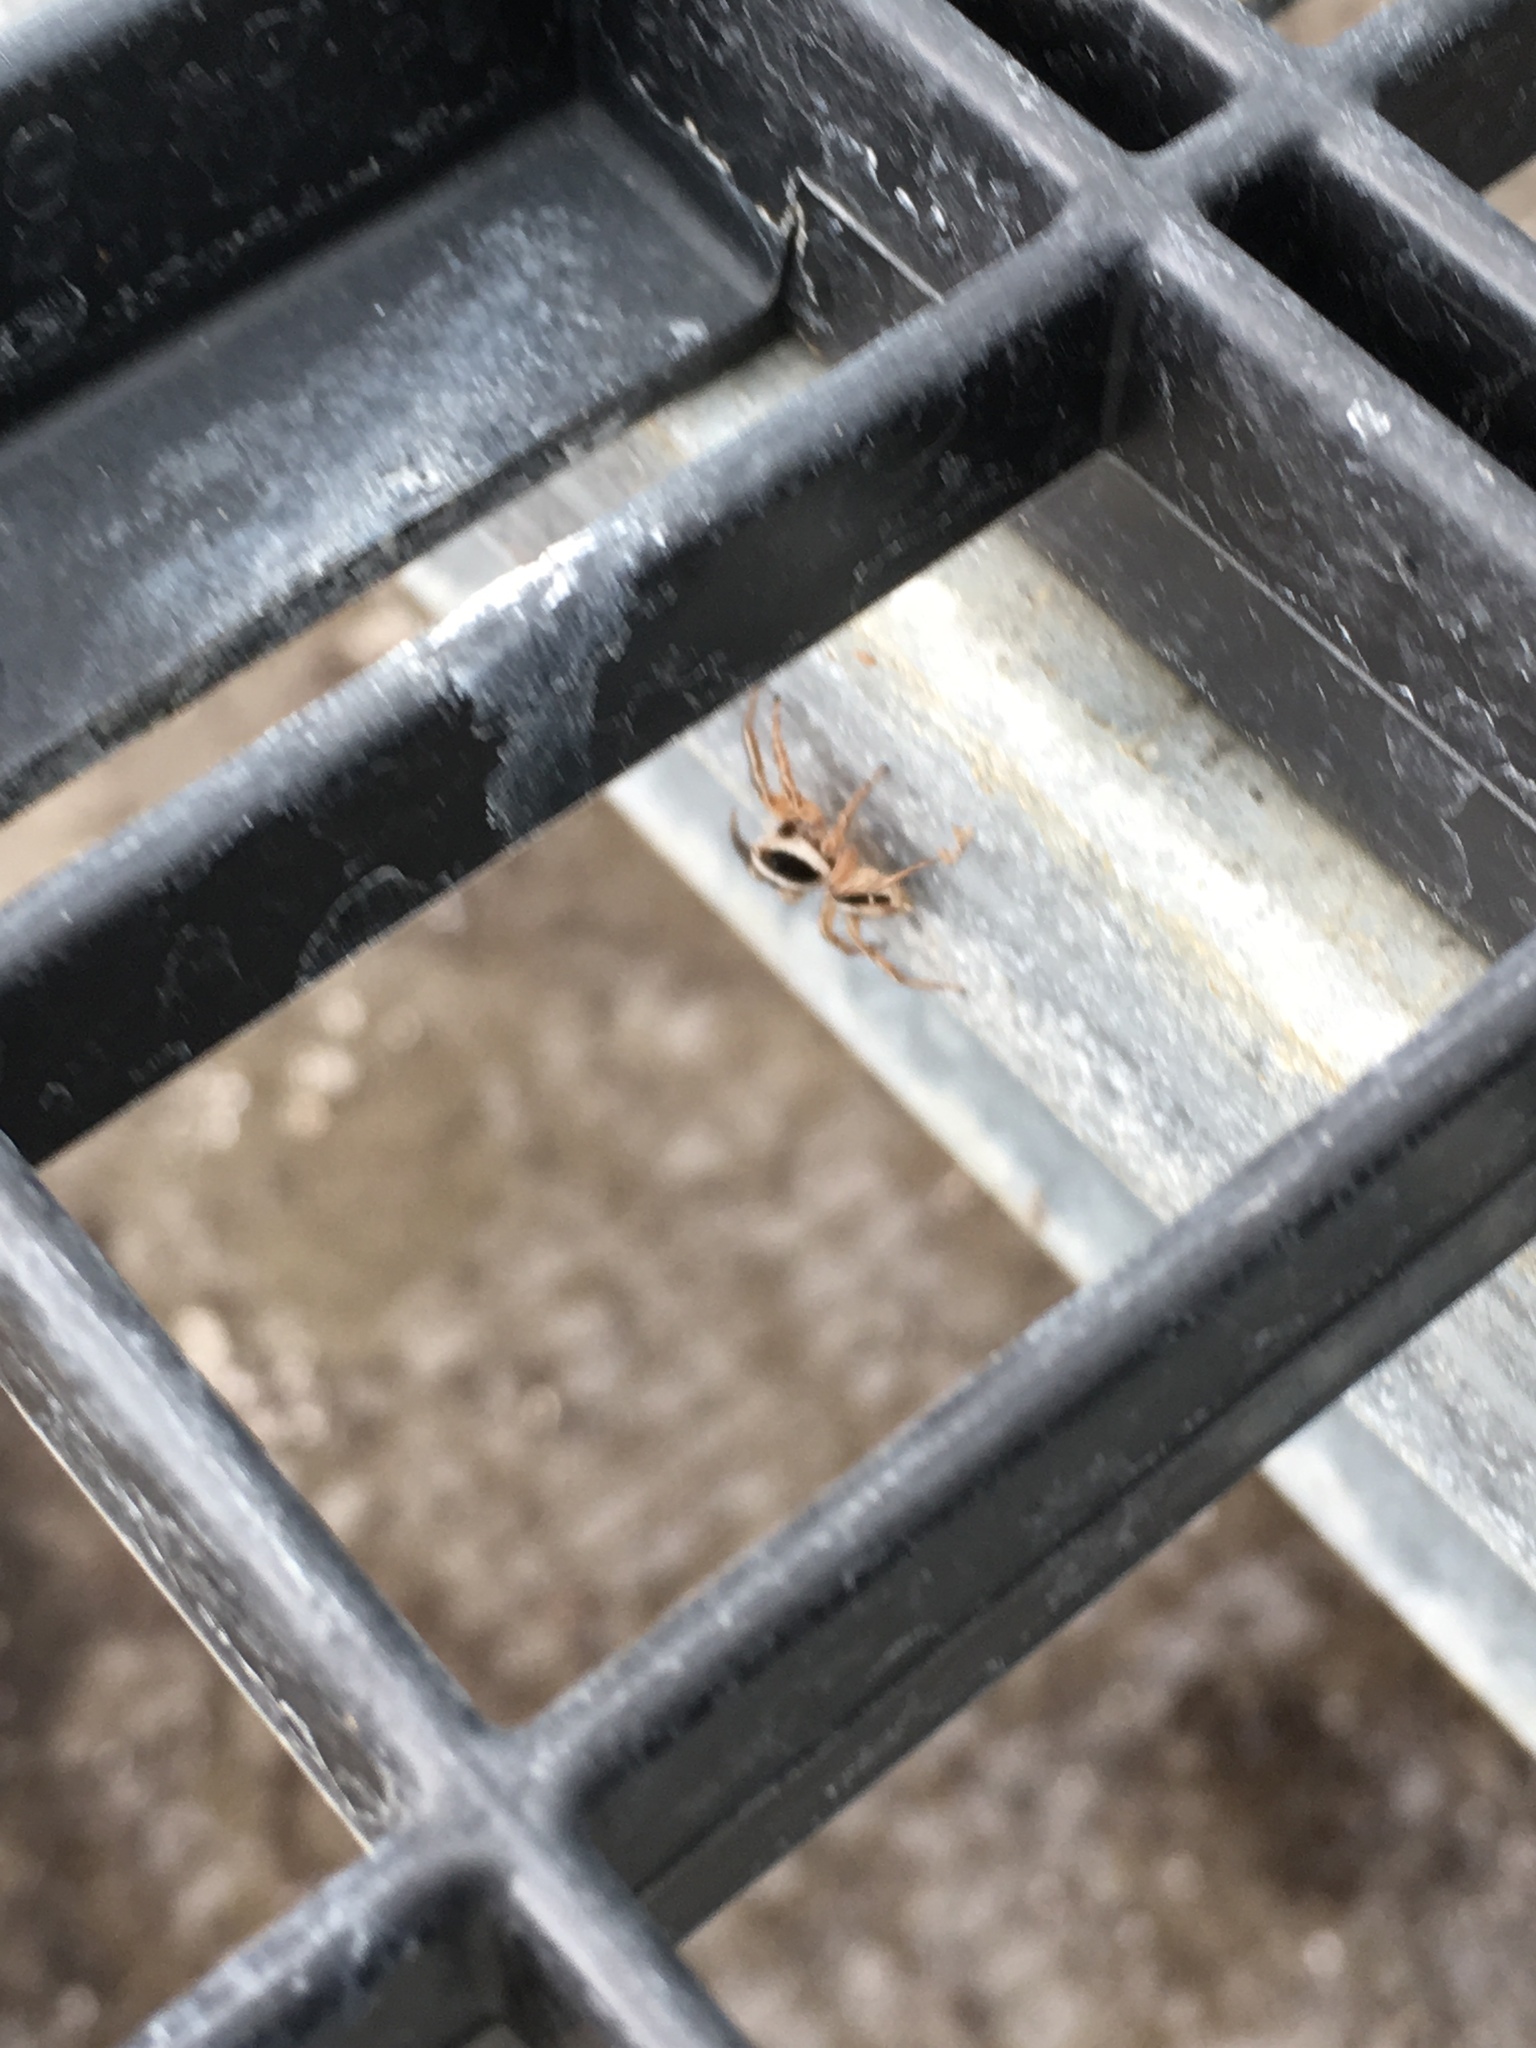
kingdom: Animalia
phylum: Arthropoda
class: Arachnida
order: Araneae
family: Salticidae
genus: Plexippus
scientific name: Plexippus paykulli
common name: Pantropical jumper
